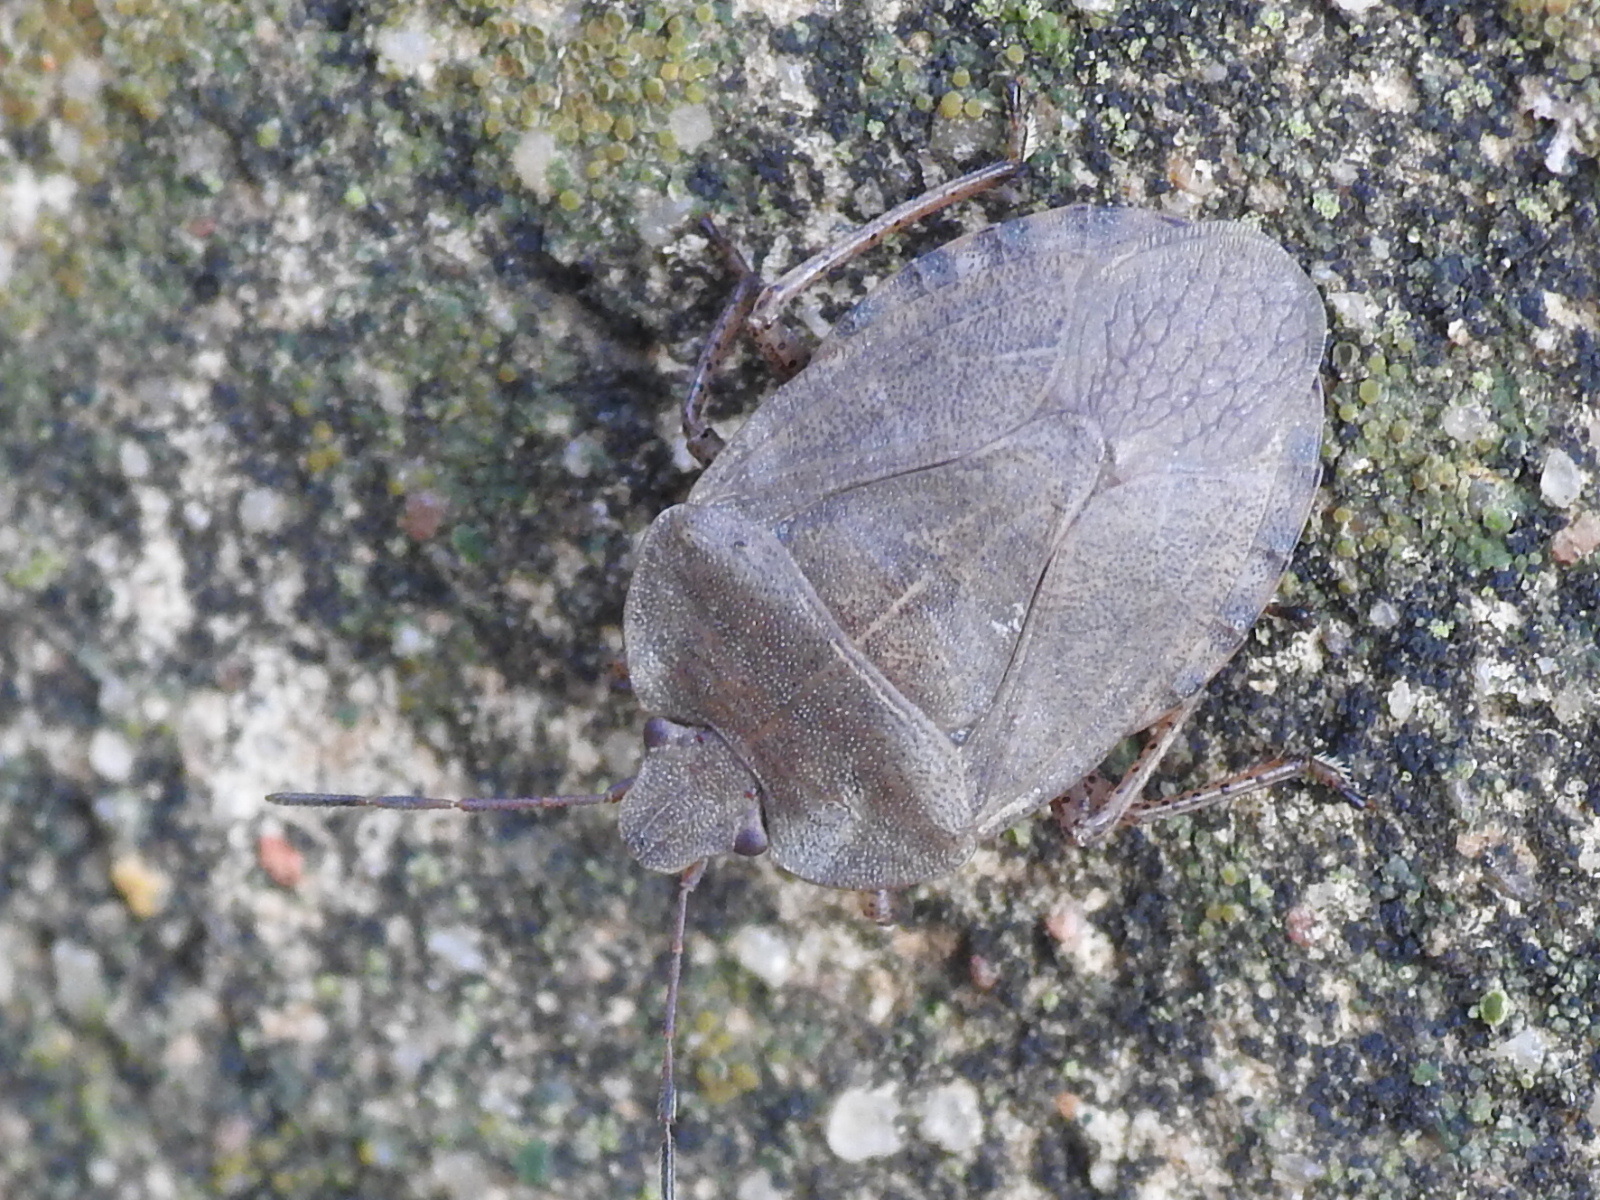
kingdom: Animalia
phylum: Arthropoda
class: Insecta
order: Hemiptera
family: Pentatomidae
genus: Menecles
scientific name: Menecles insertus
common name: Elf shoe stink bug
